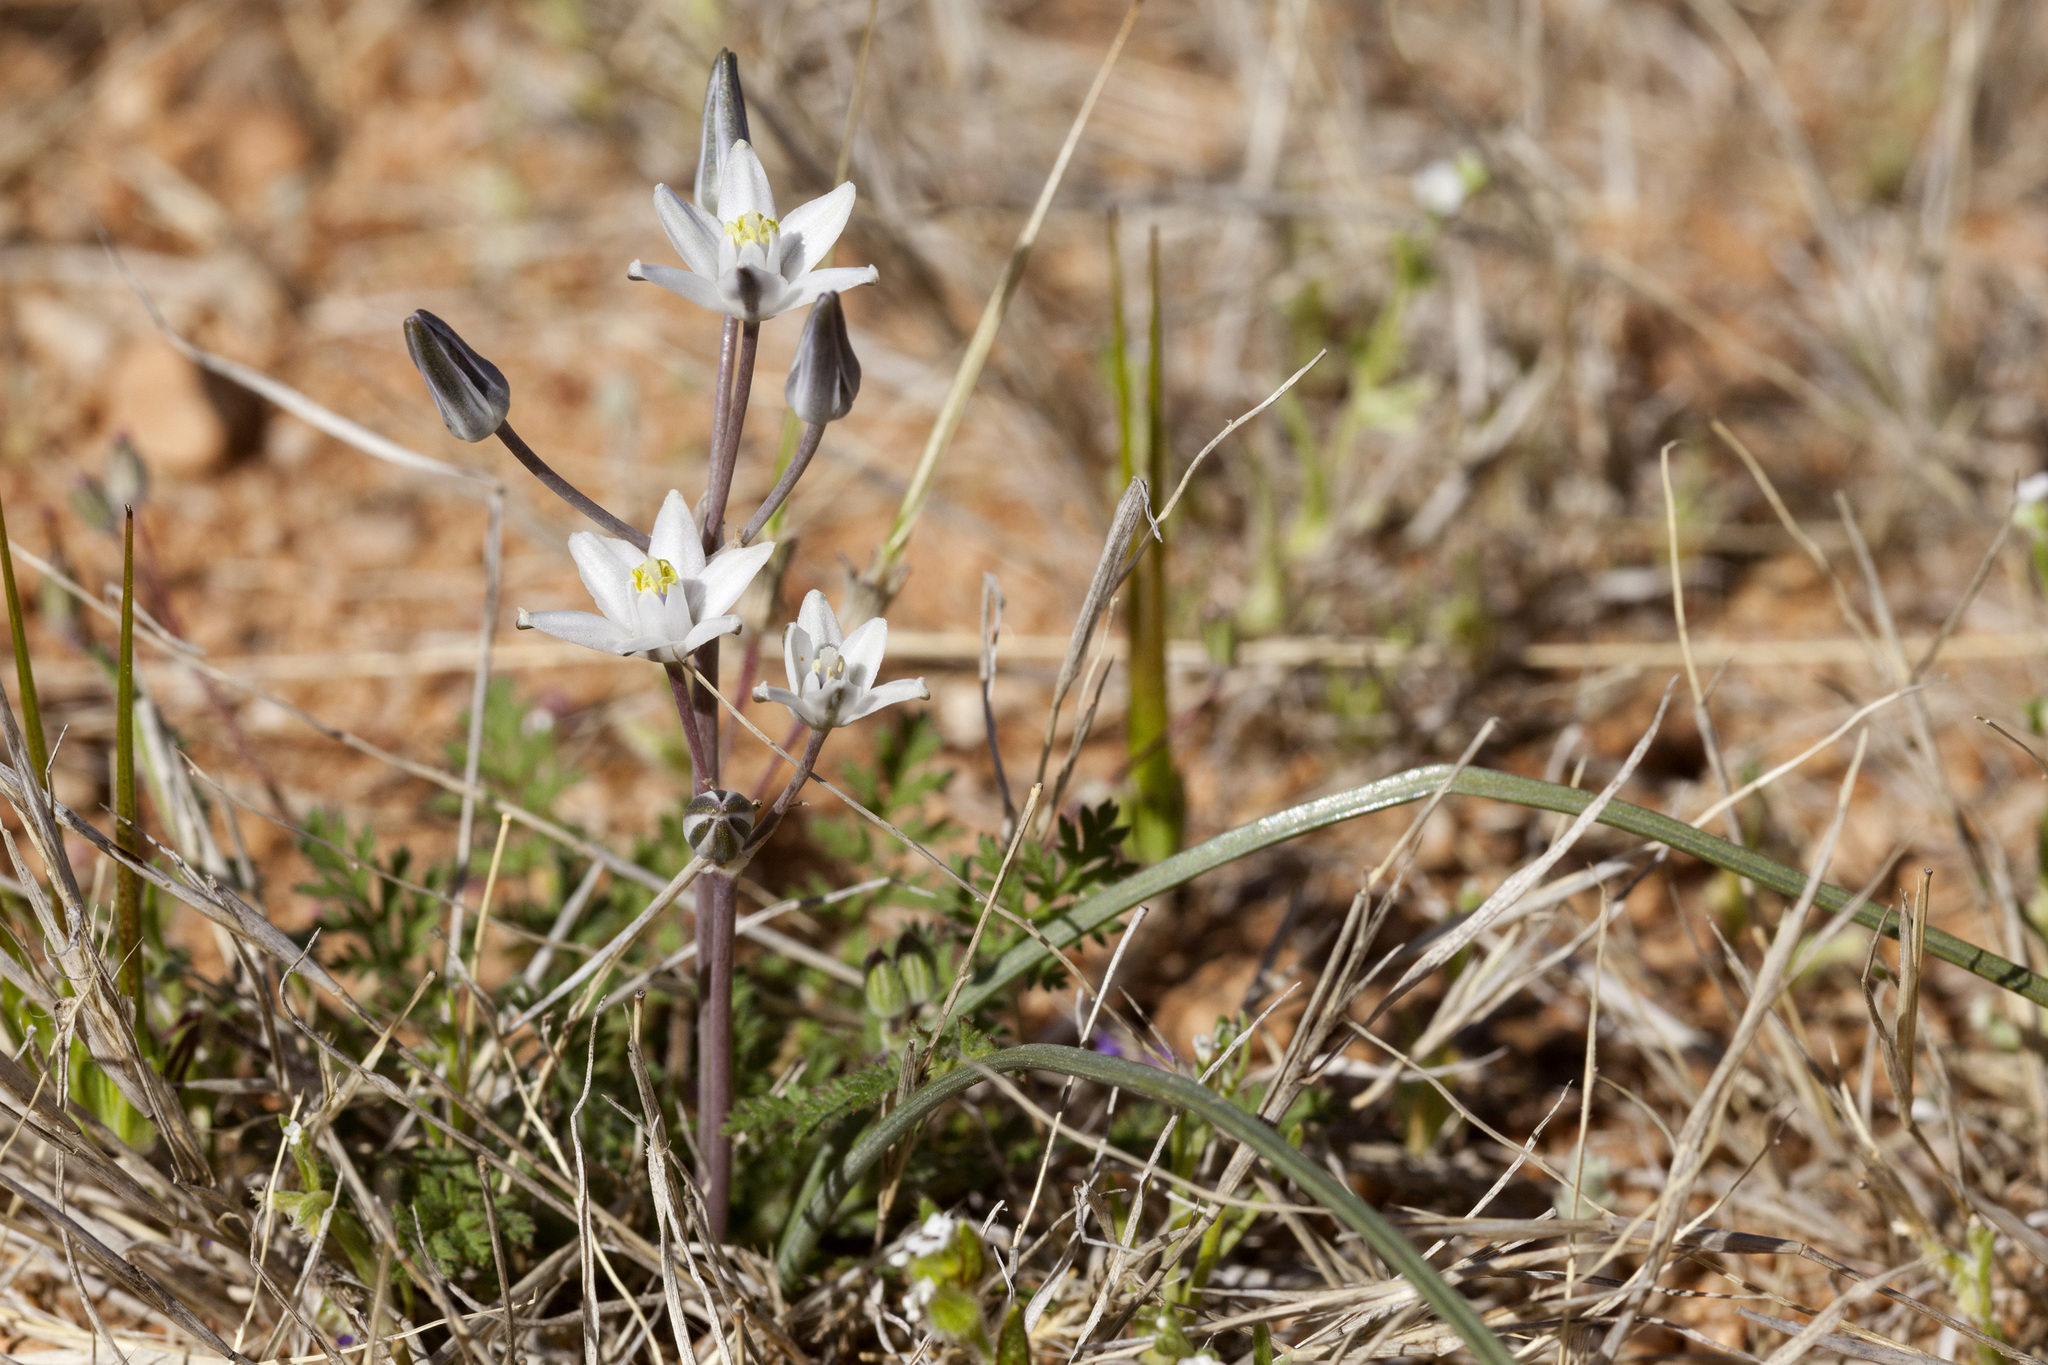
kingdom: Plantae
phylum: Tracheophyta
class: Liliopsida
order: Asparagales
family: Asparagaceae
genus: Muilla
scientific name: Muilla lordsburgana
